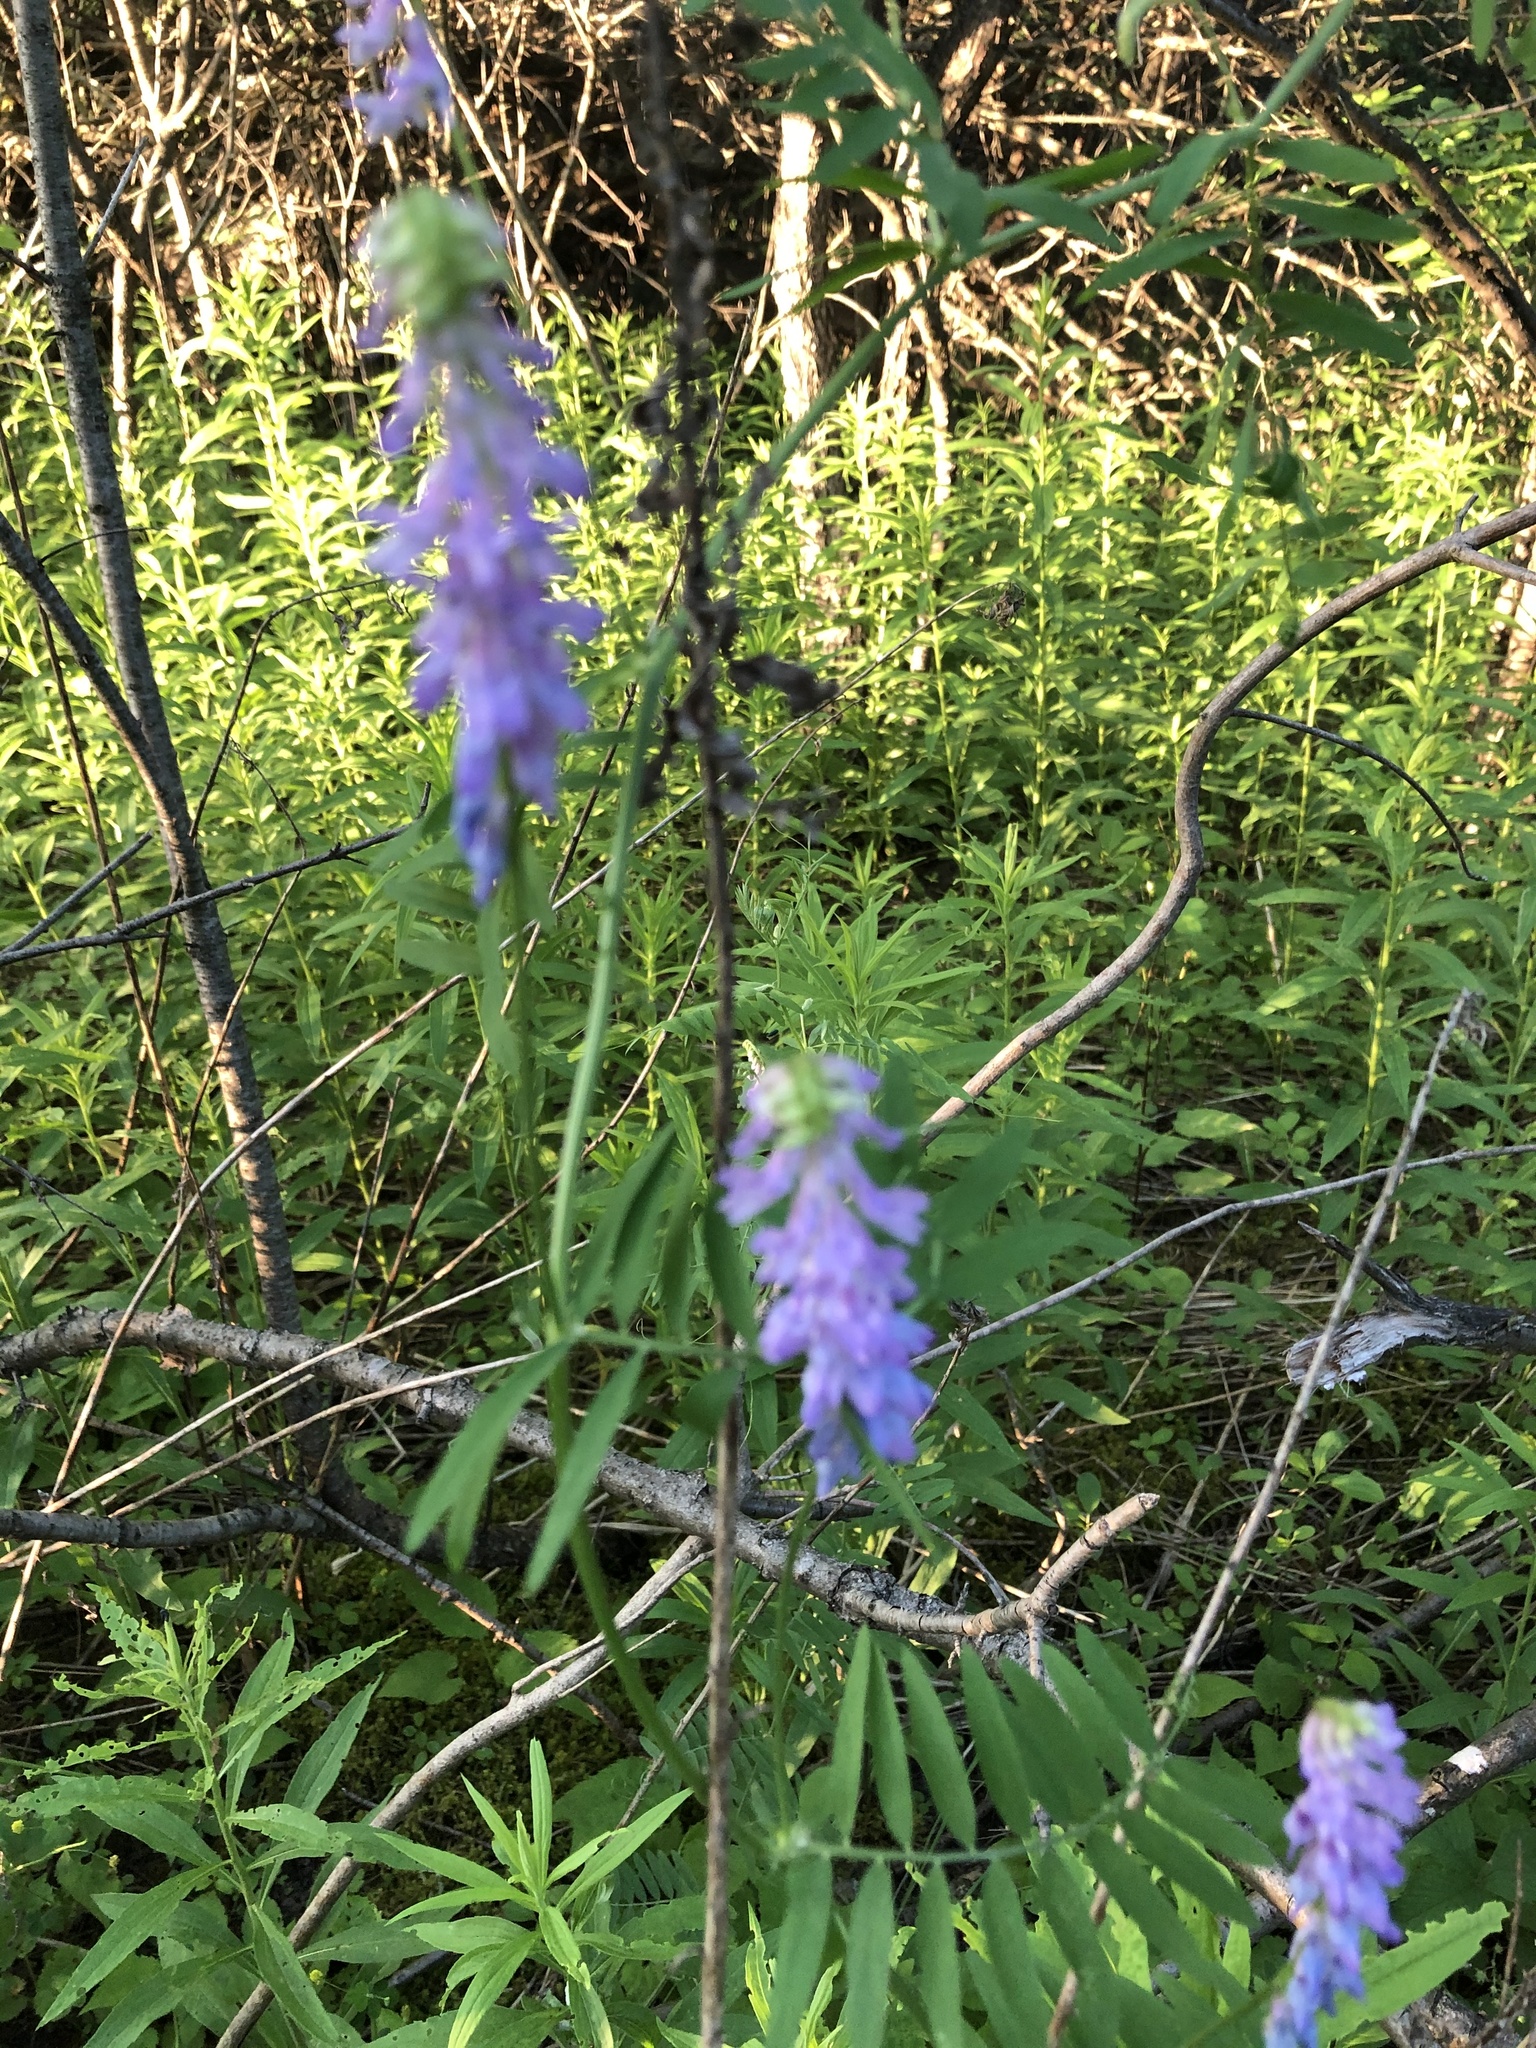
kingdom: Plantae
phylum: Tracheophyta
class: Magnoliopsida
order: Fabales
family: Fabaceae
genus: Vicia
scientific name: Vicia cracca
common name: Bird vetch
